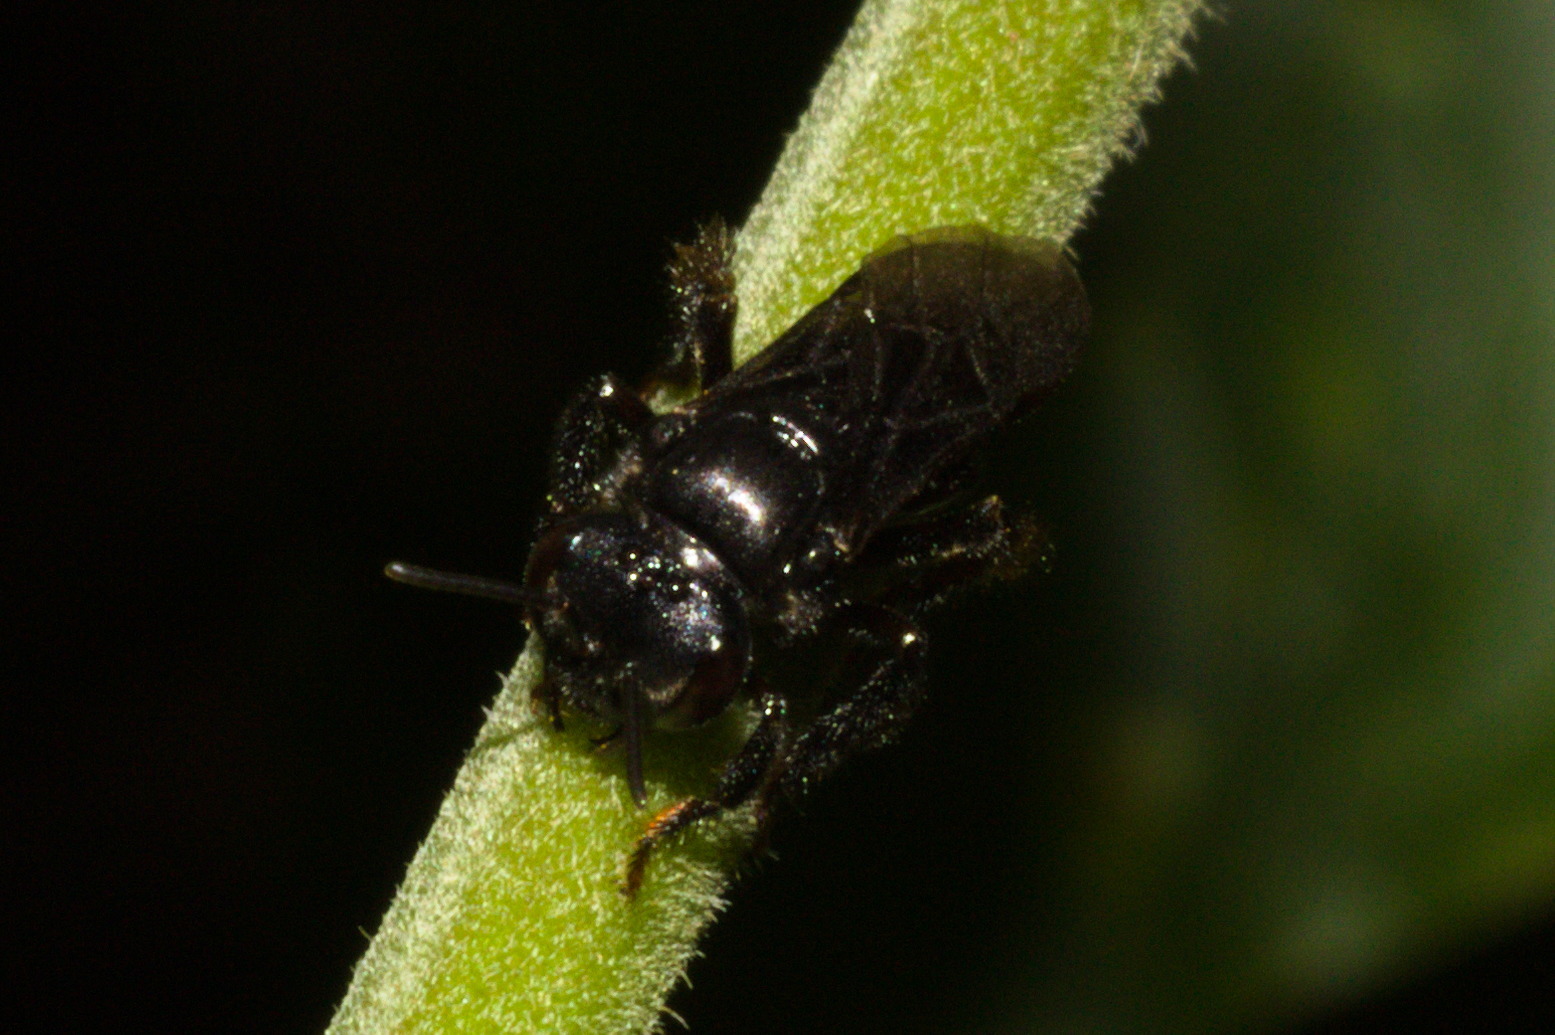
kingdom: Animalia
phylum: Arthropoda
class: Insecta
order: Hymenoptera
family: Apidae
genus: Trigona
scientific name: Trigona spinipes
